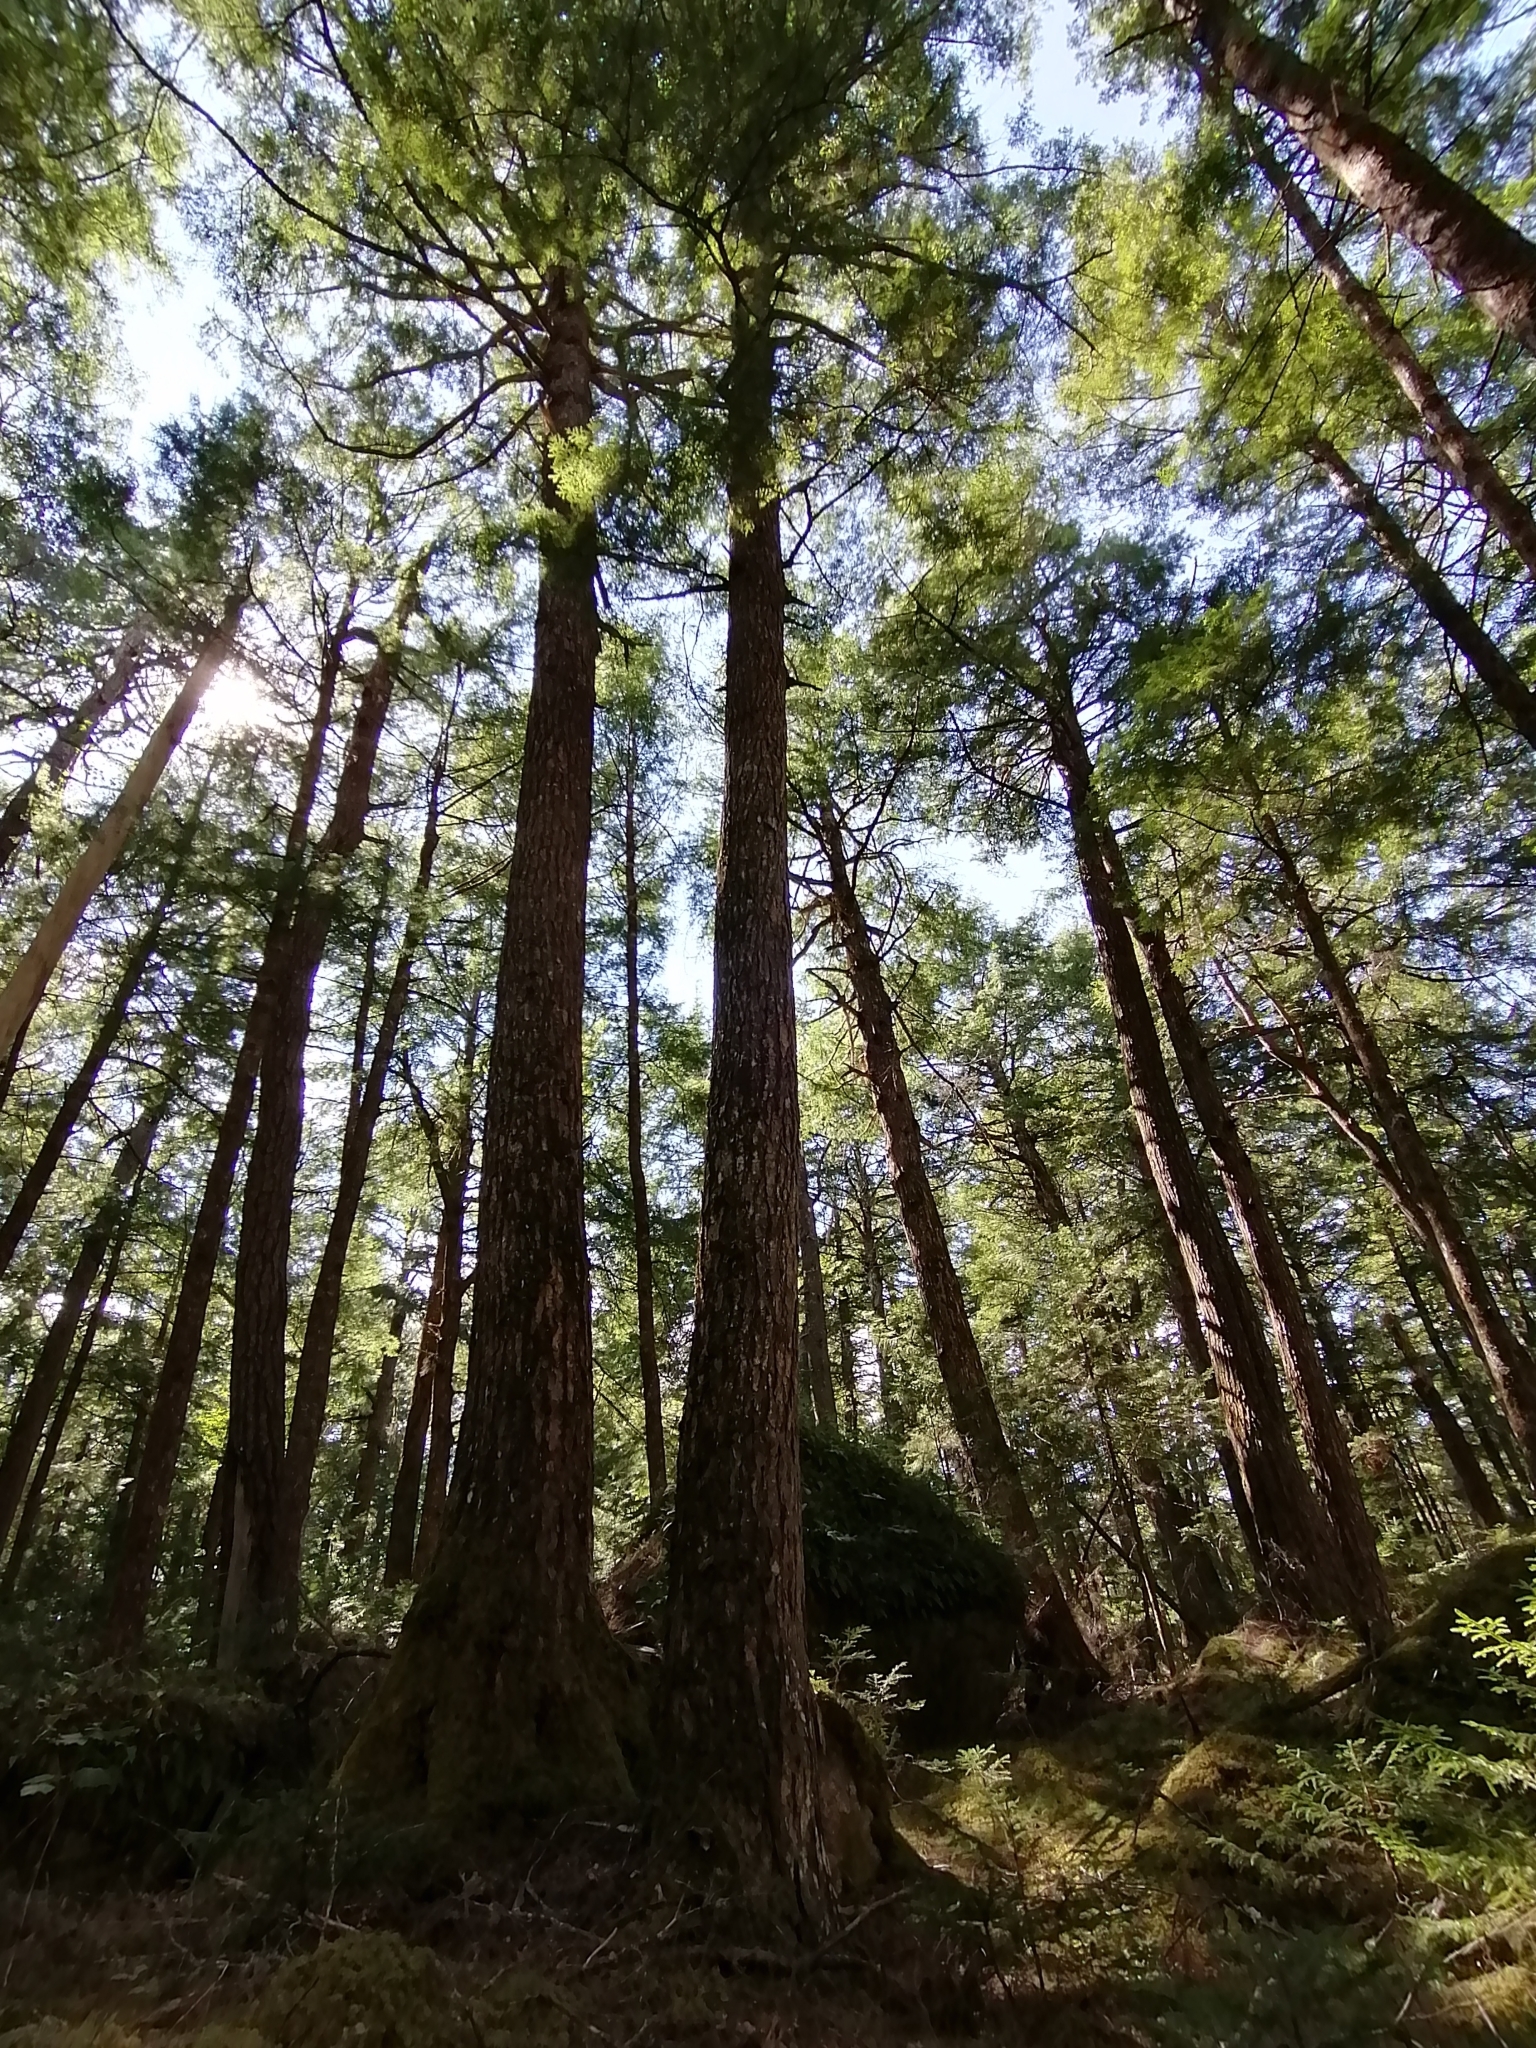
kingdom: Plantae
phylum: Tracheophyta
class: Pinopsida
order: Pinales
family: Pinaceae
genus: Tsuga
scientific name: Tsuga canadensis
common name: Eastern hemlock
